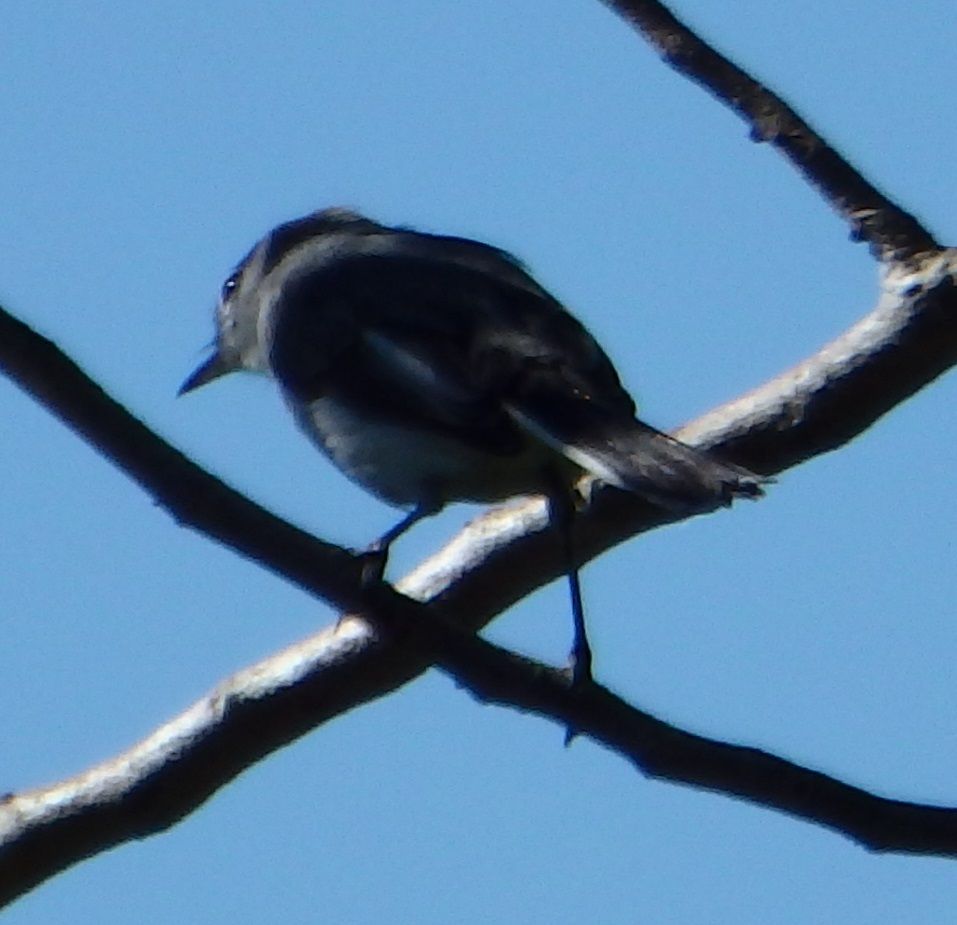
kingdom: Animalia
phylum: Chordata
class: Aves
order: Passeriformes
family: Polioptilidae
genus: Polioptila
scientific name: Polioptila caerulea
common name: Blue-gray gnatcatcher
